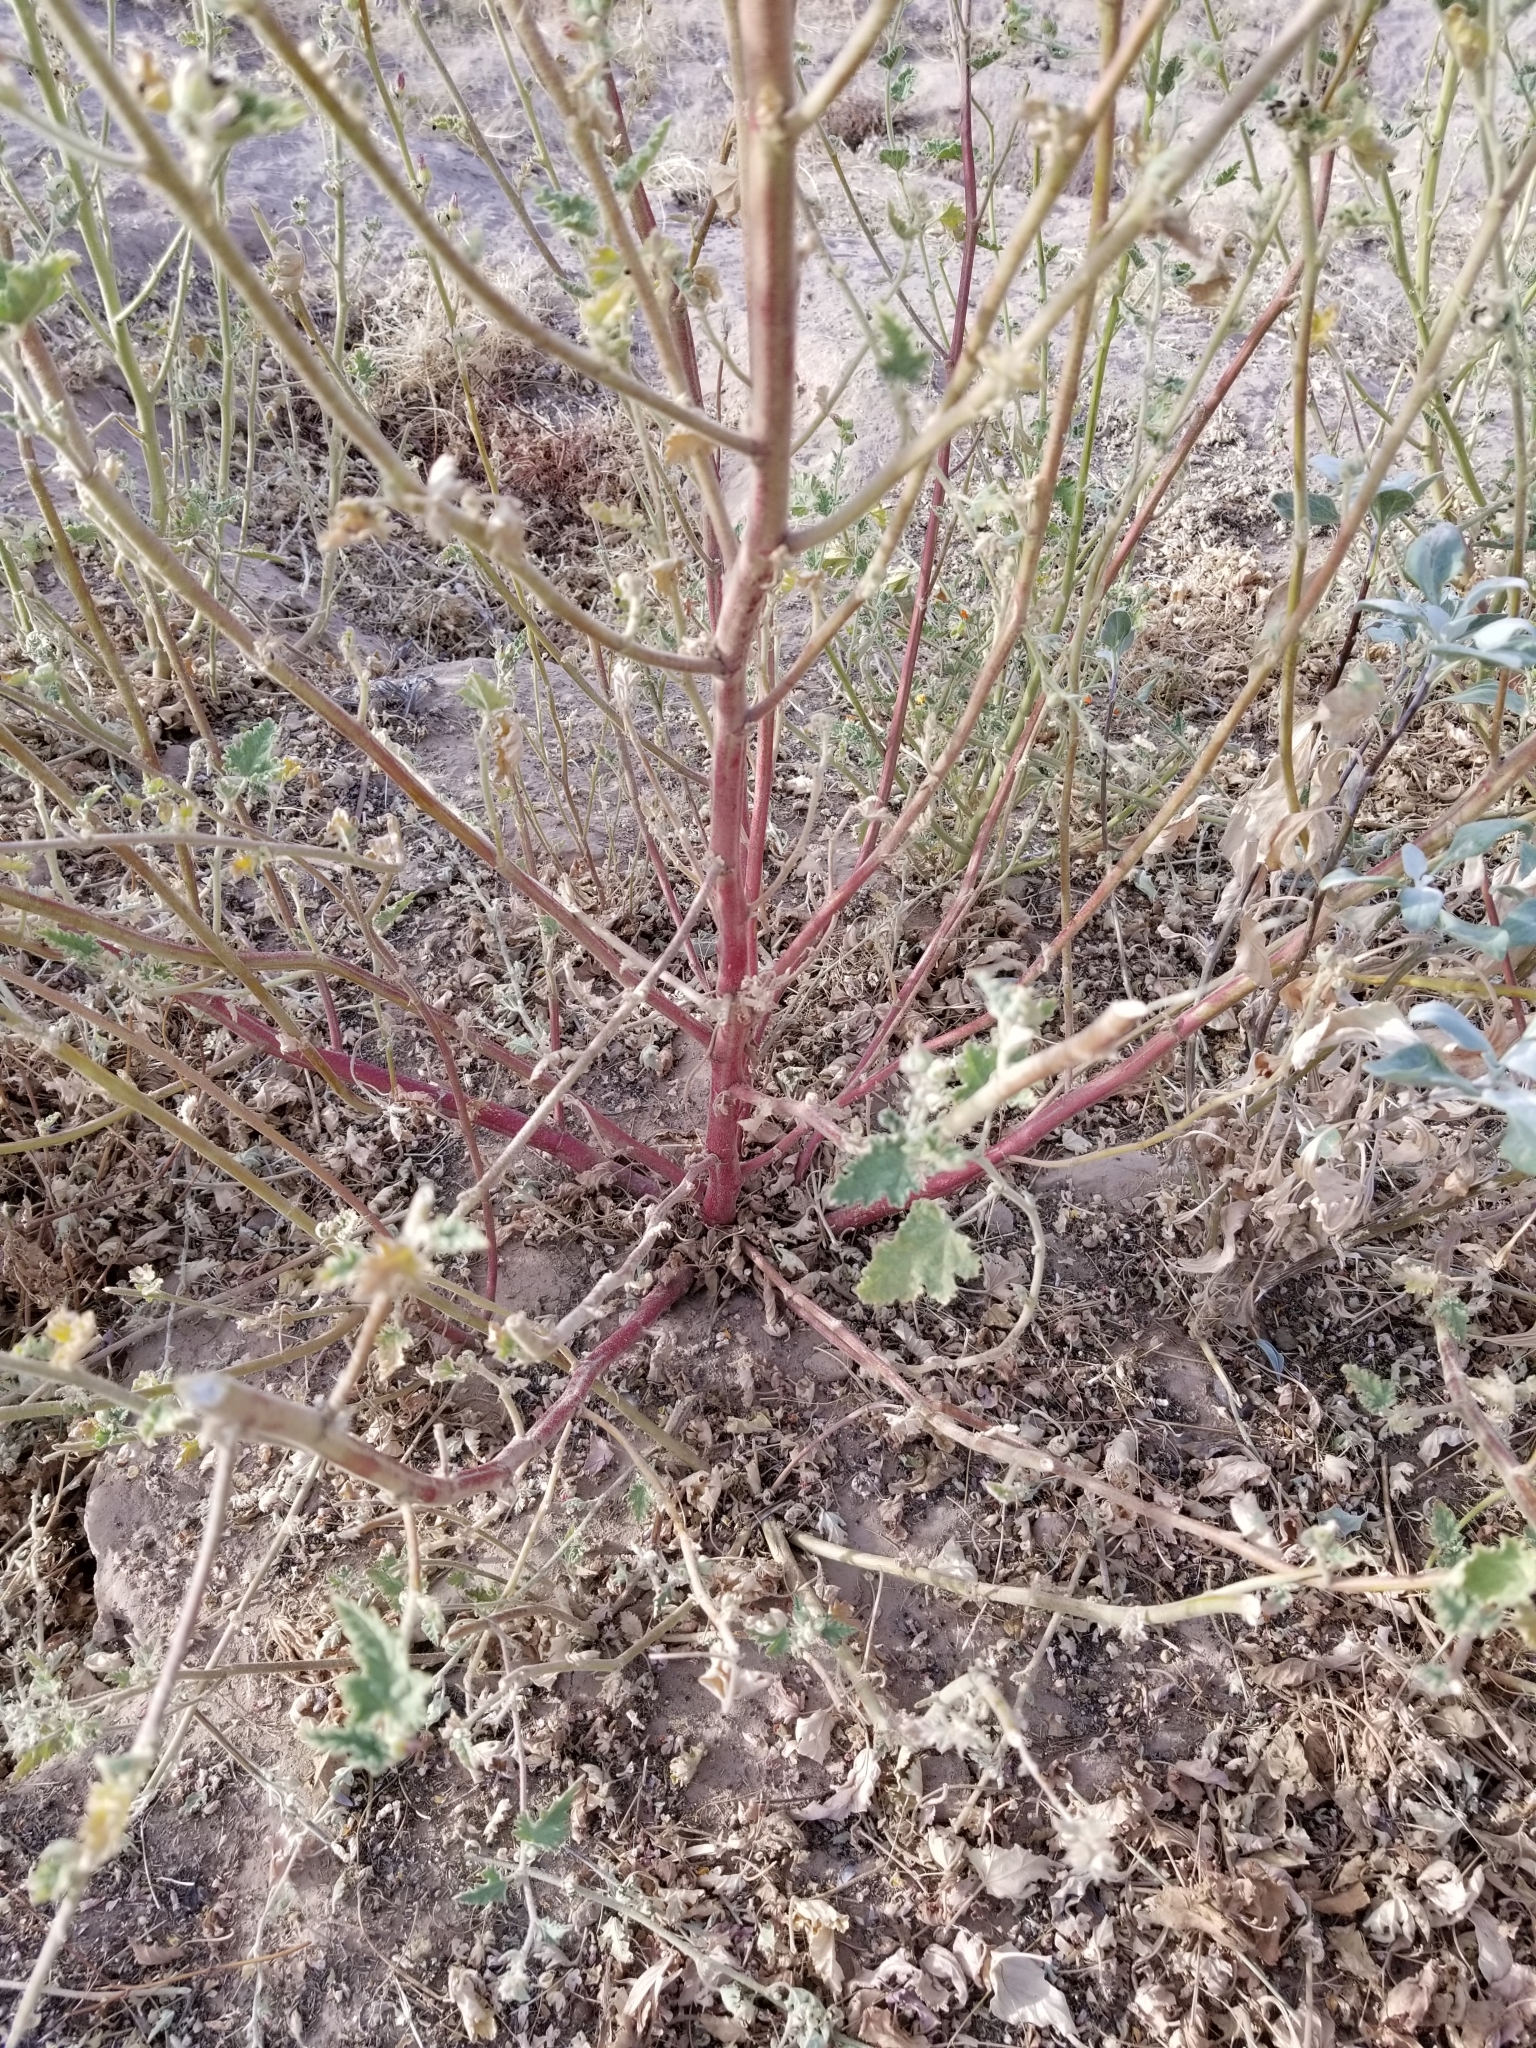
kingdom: Plantae
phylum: Tracheophyta
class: Magnoliopsida
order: Malvales
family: Malvaceae
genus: Sphaeralcea
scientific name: Sphaeralcea coulteri
